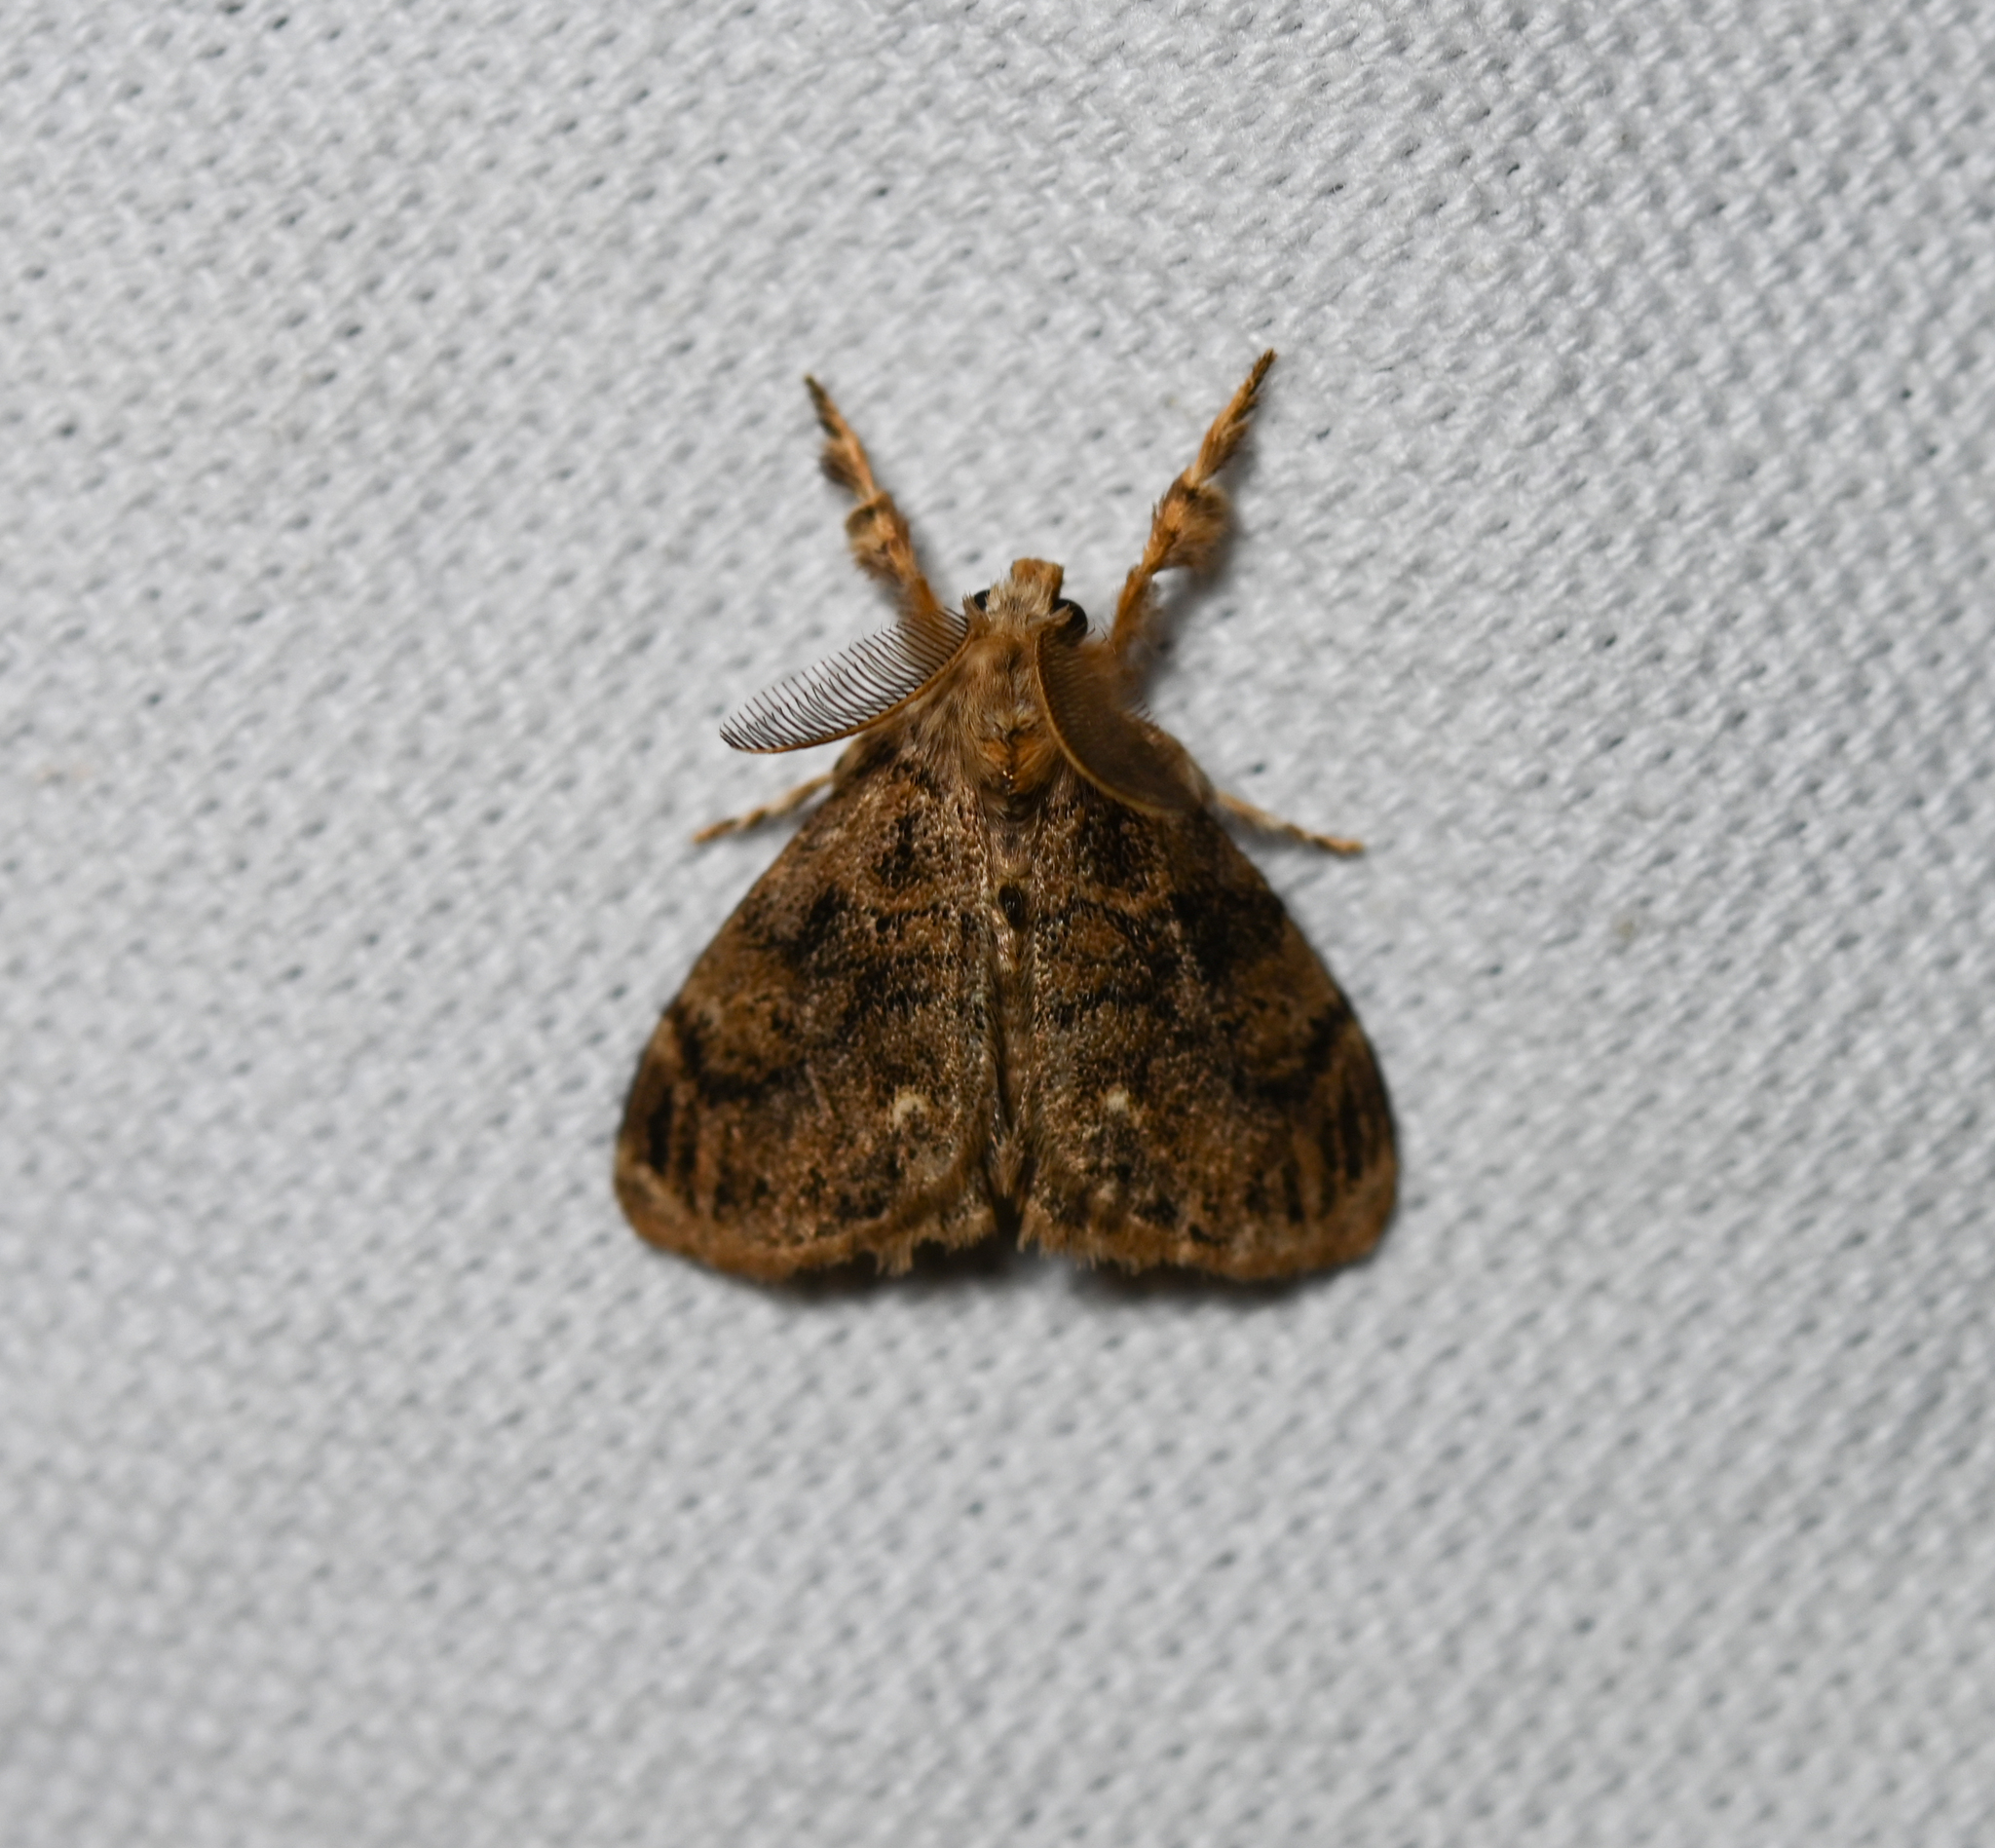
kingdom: Animalia
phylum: Arthropoda
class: Insecta
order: Lepidoptera
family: Erebidae
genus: Orgyia
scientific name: Orgyia detrita
